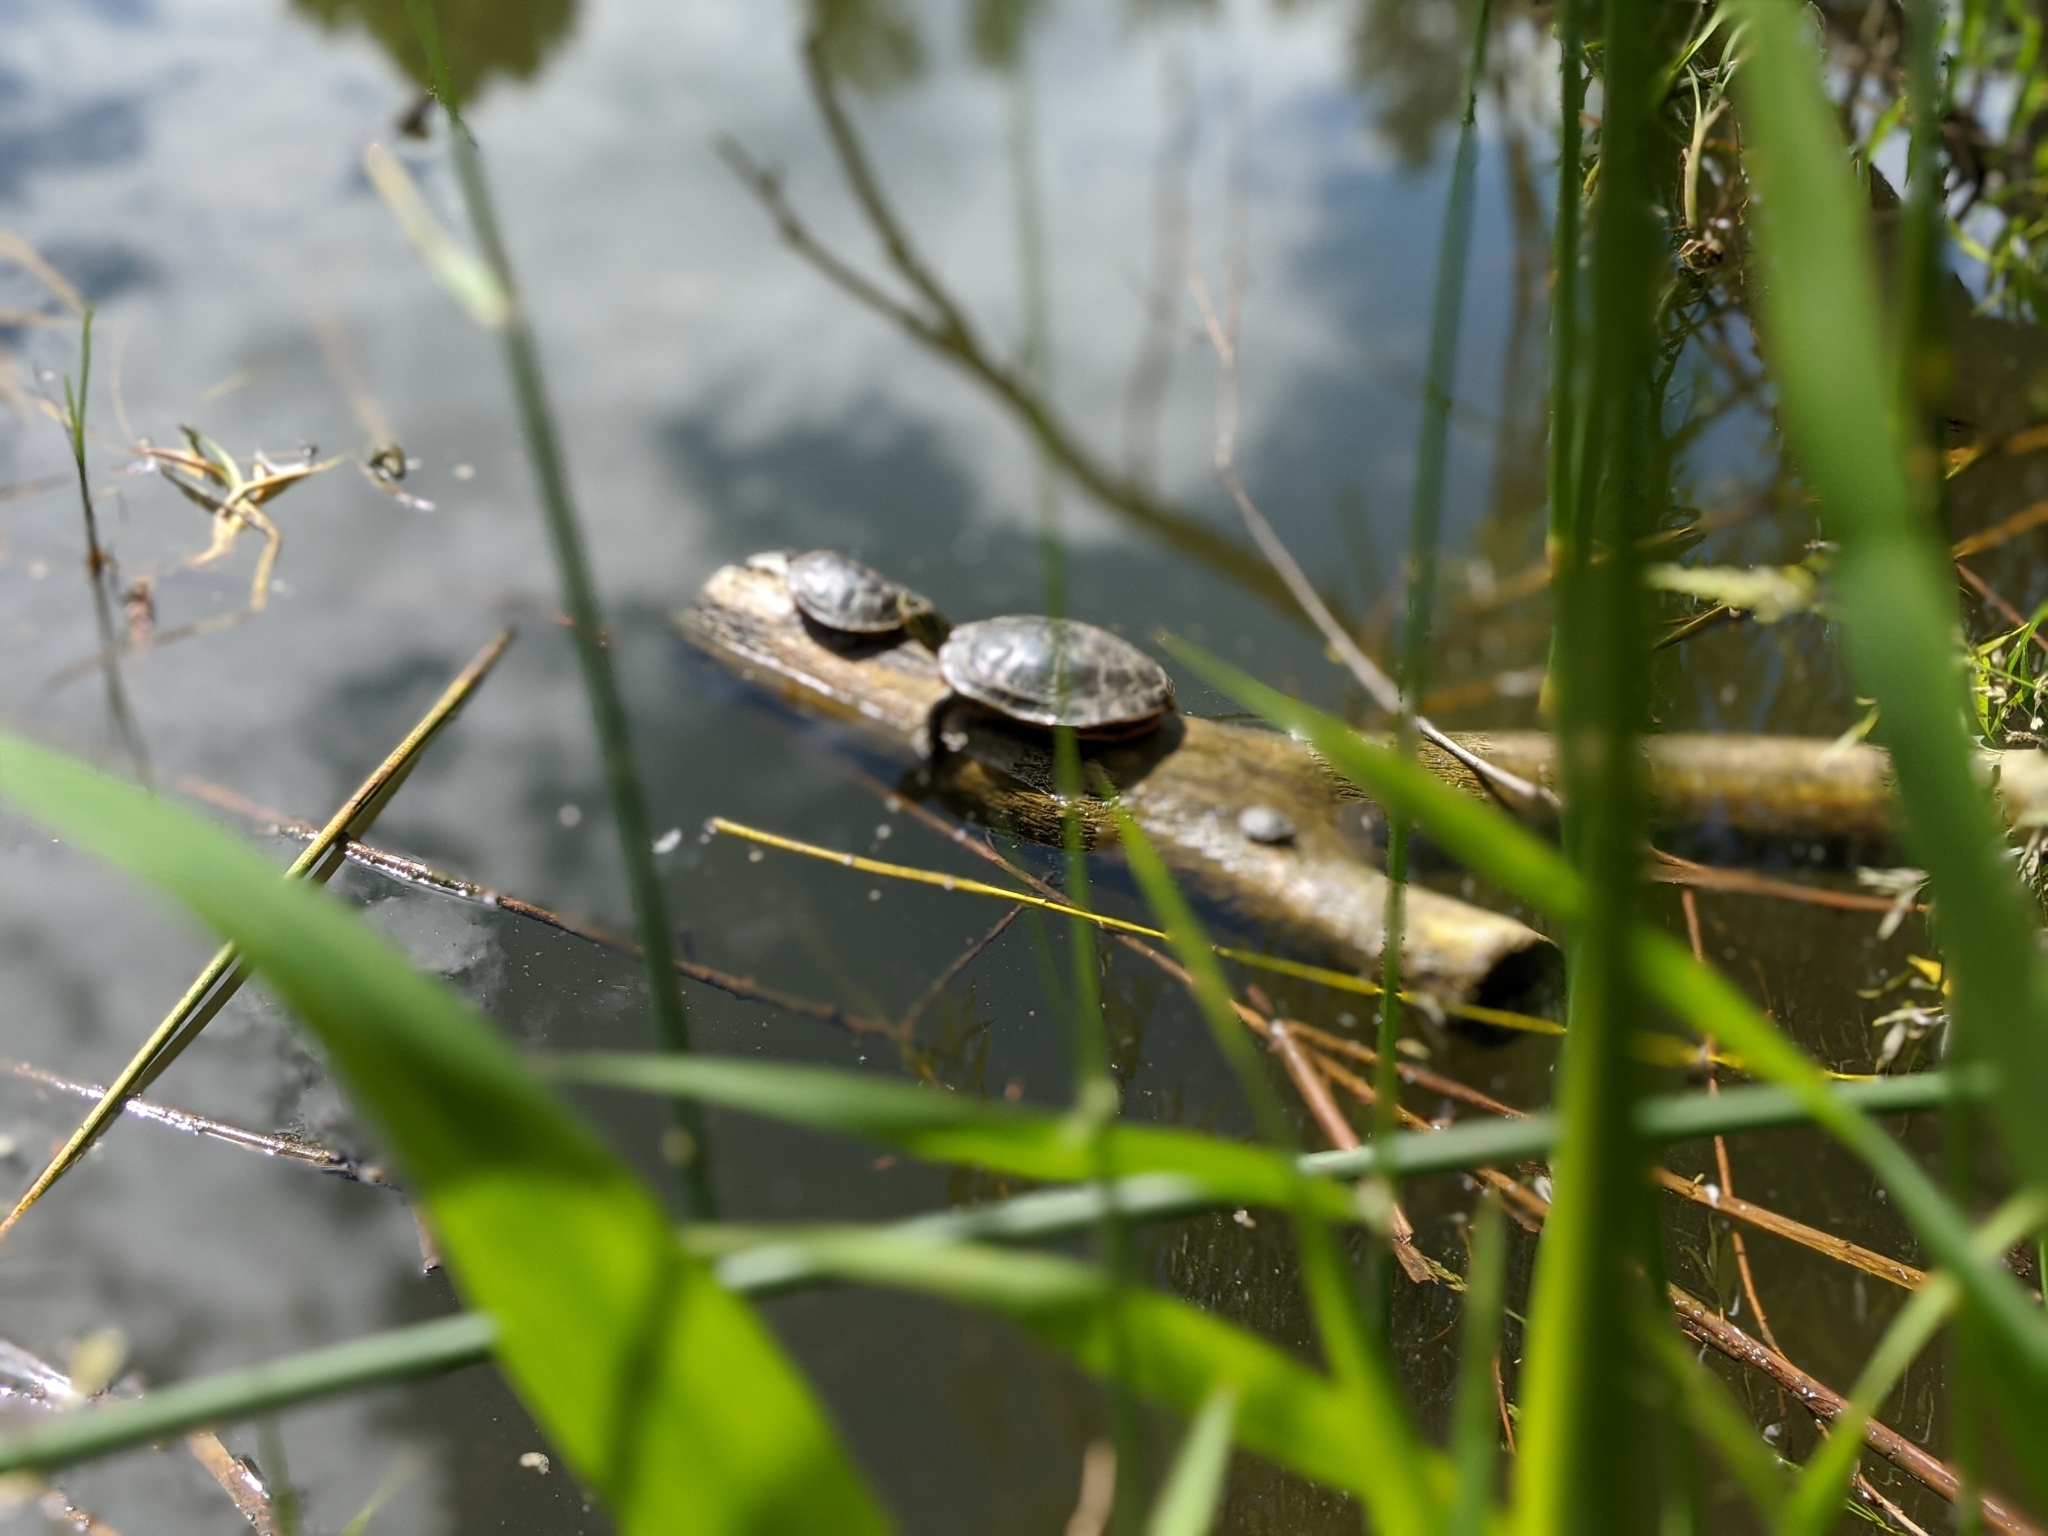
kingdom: Animalia
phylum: Chordata
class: Testudines
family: Emydidae
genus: Chrysemys
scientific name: Chrysemys picta
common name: Painted turtle
